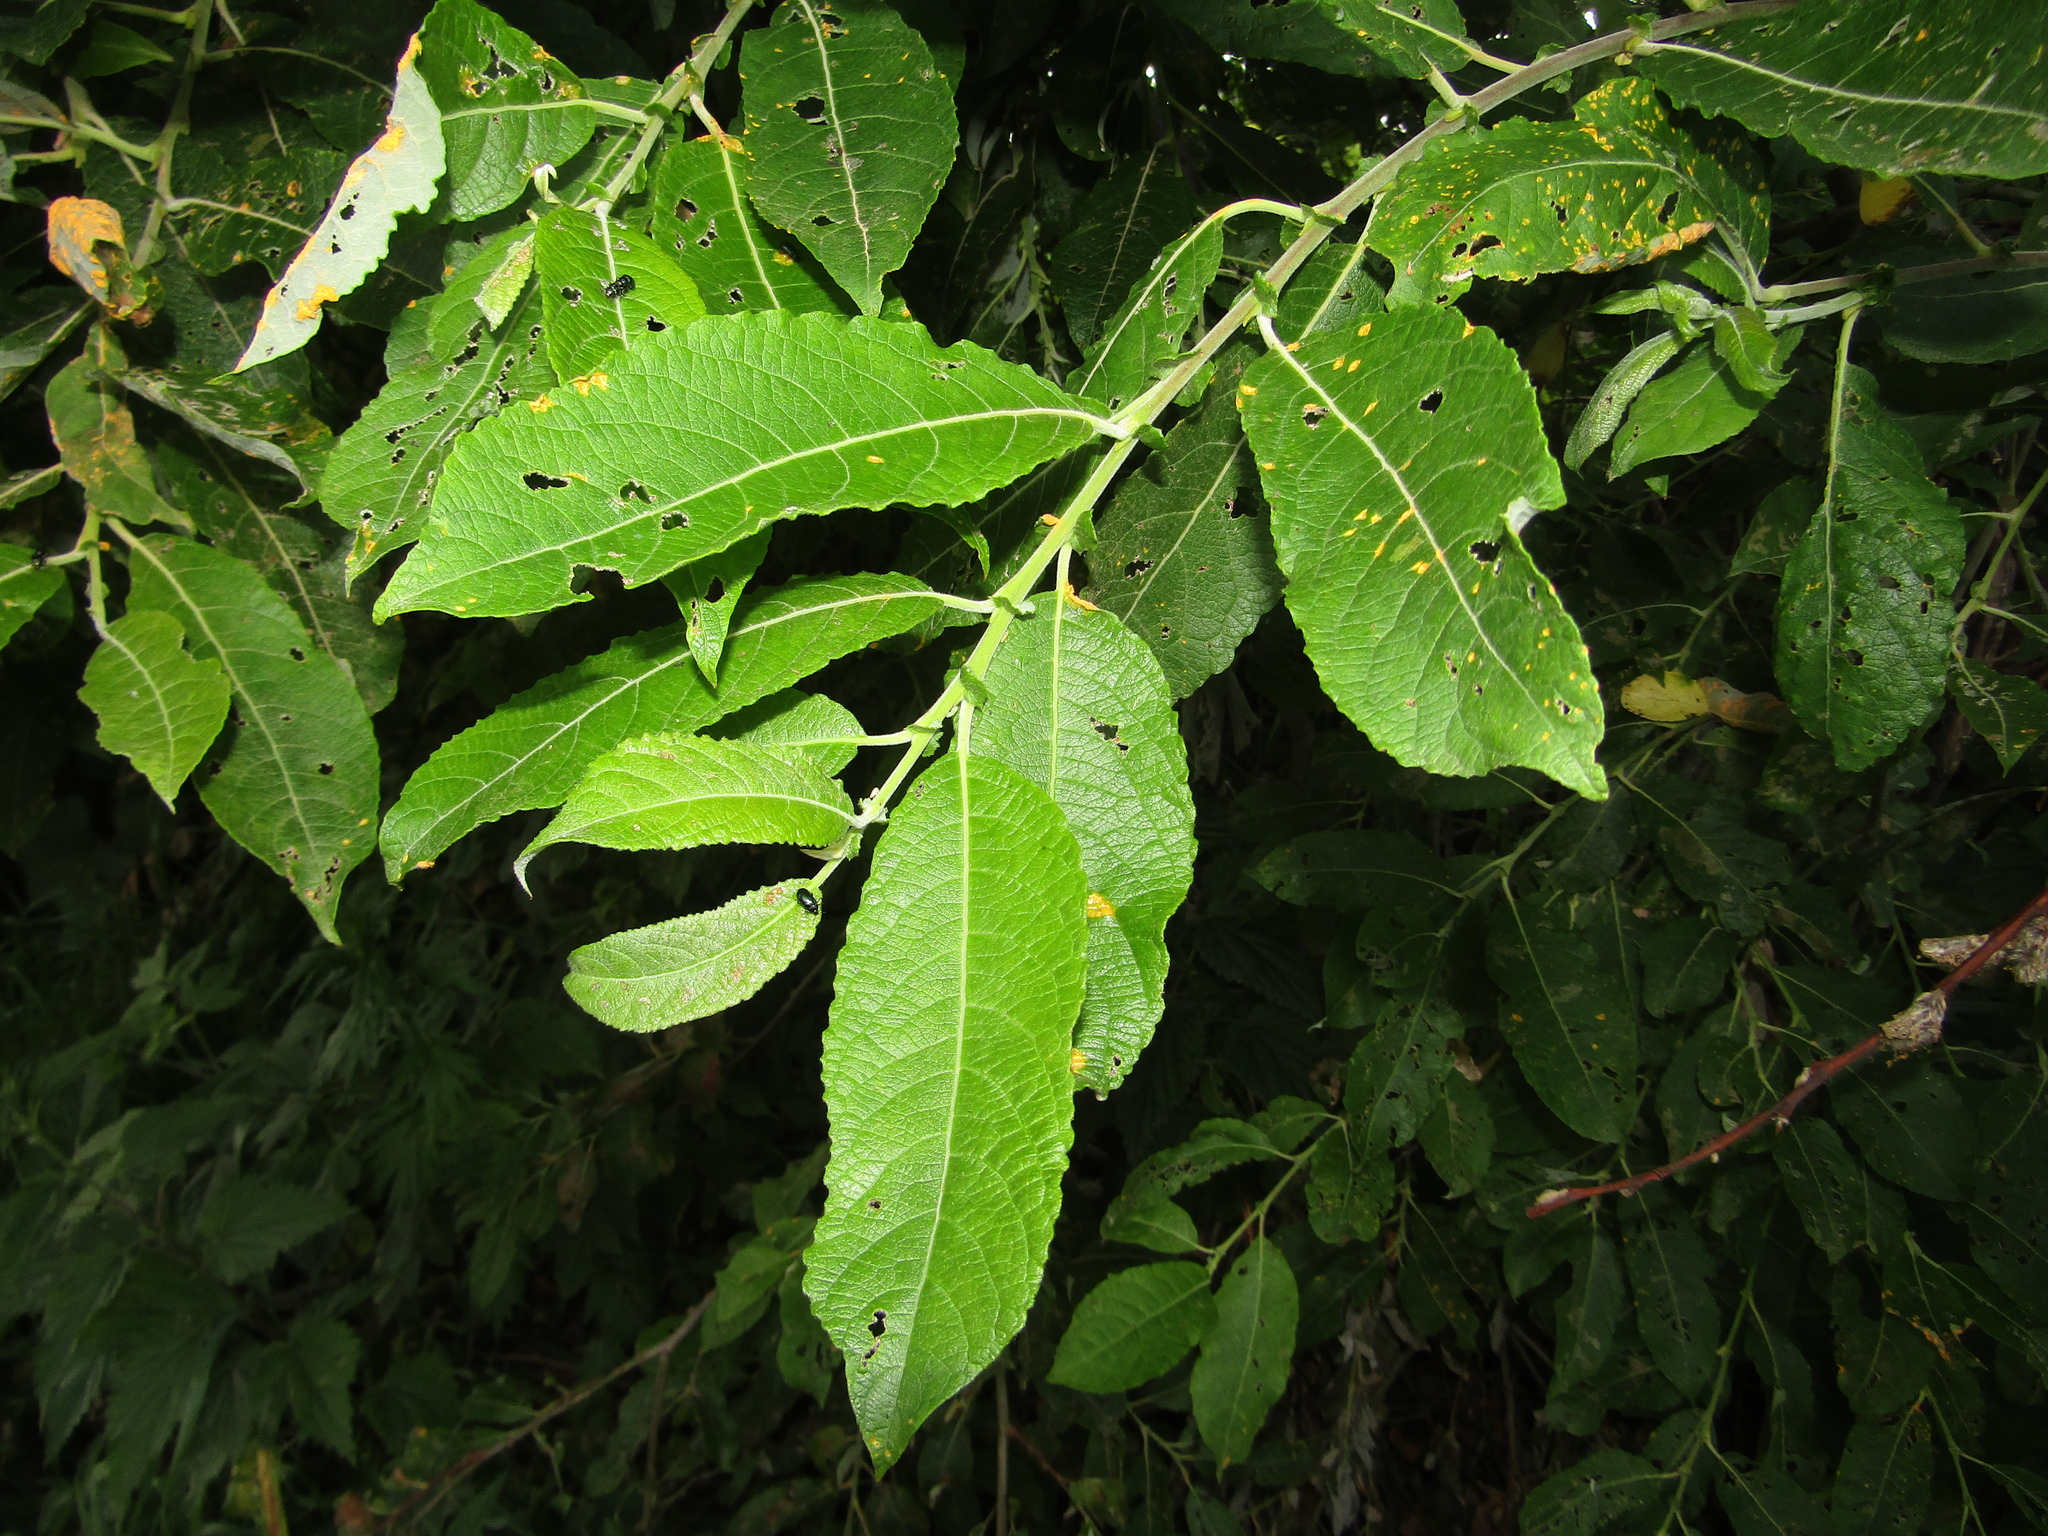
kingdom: Plantae
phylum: Tracheophyta
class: Magnoliopsida
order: Malpighiales
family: Salicaceae
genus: Salix
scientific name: Salix caprea
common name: Goat willow
